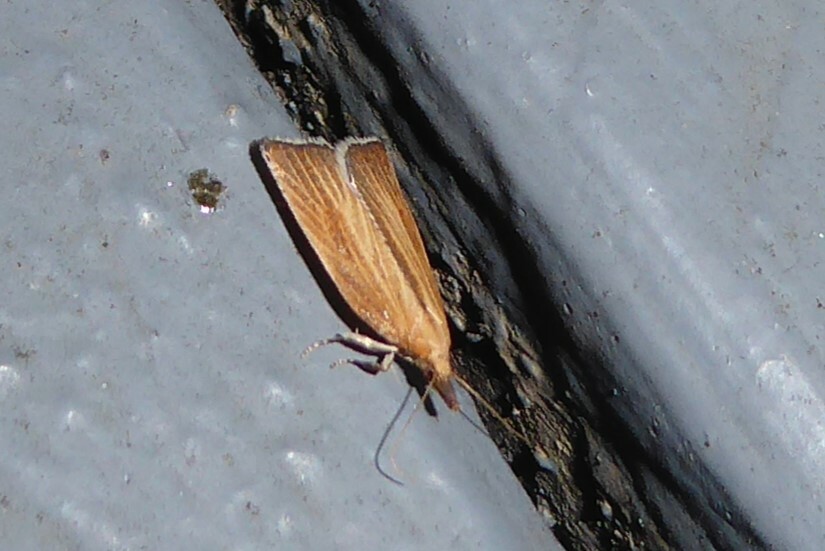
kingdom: Animalia
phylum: Arthropoda
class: Insecta
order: Lepidoptera
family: Tortricidae
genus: Catamacta
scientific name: Catamacta lotinana
